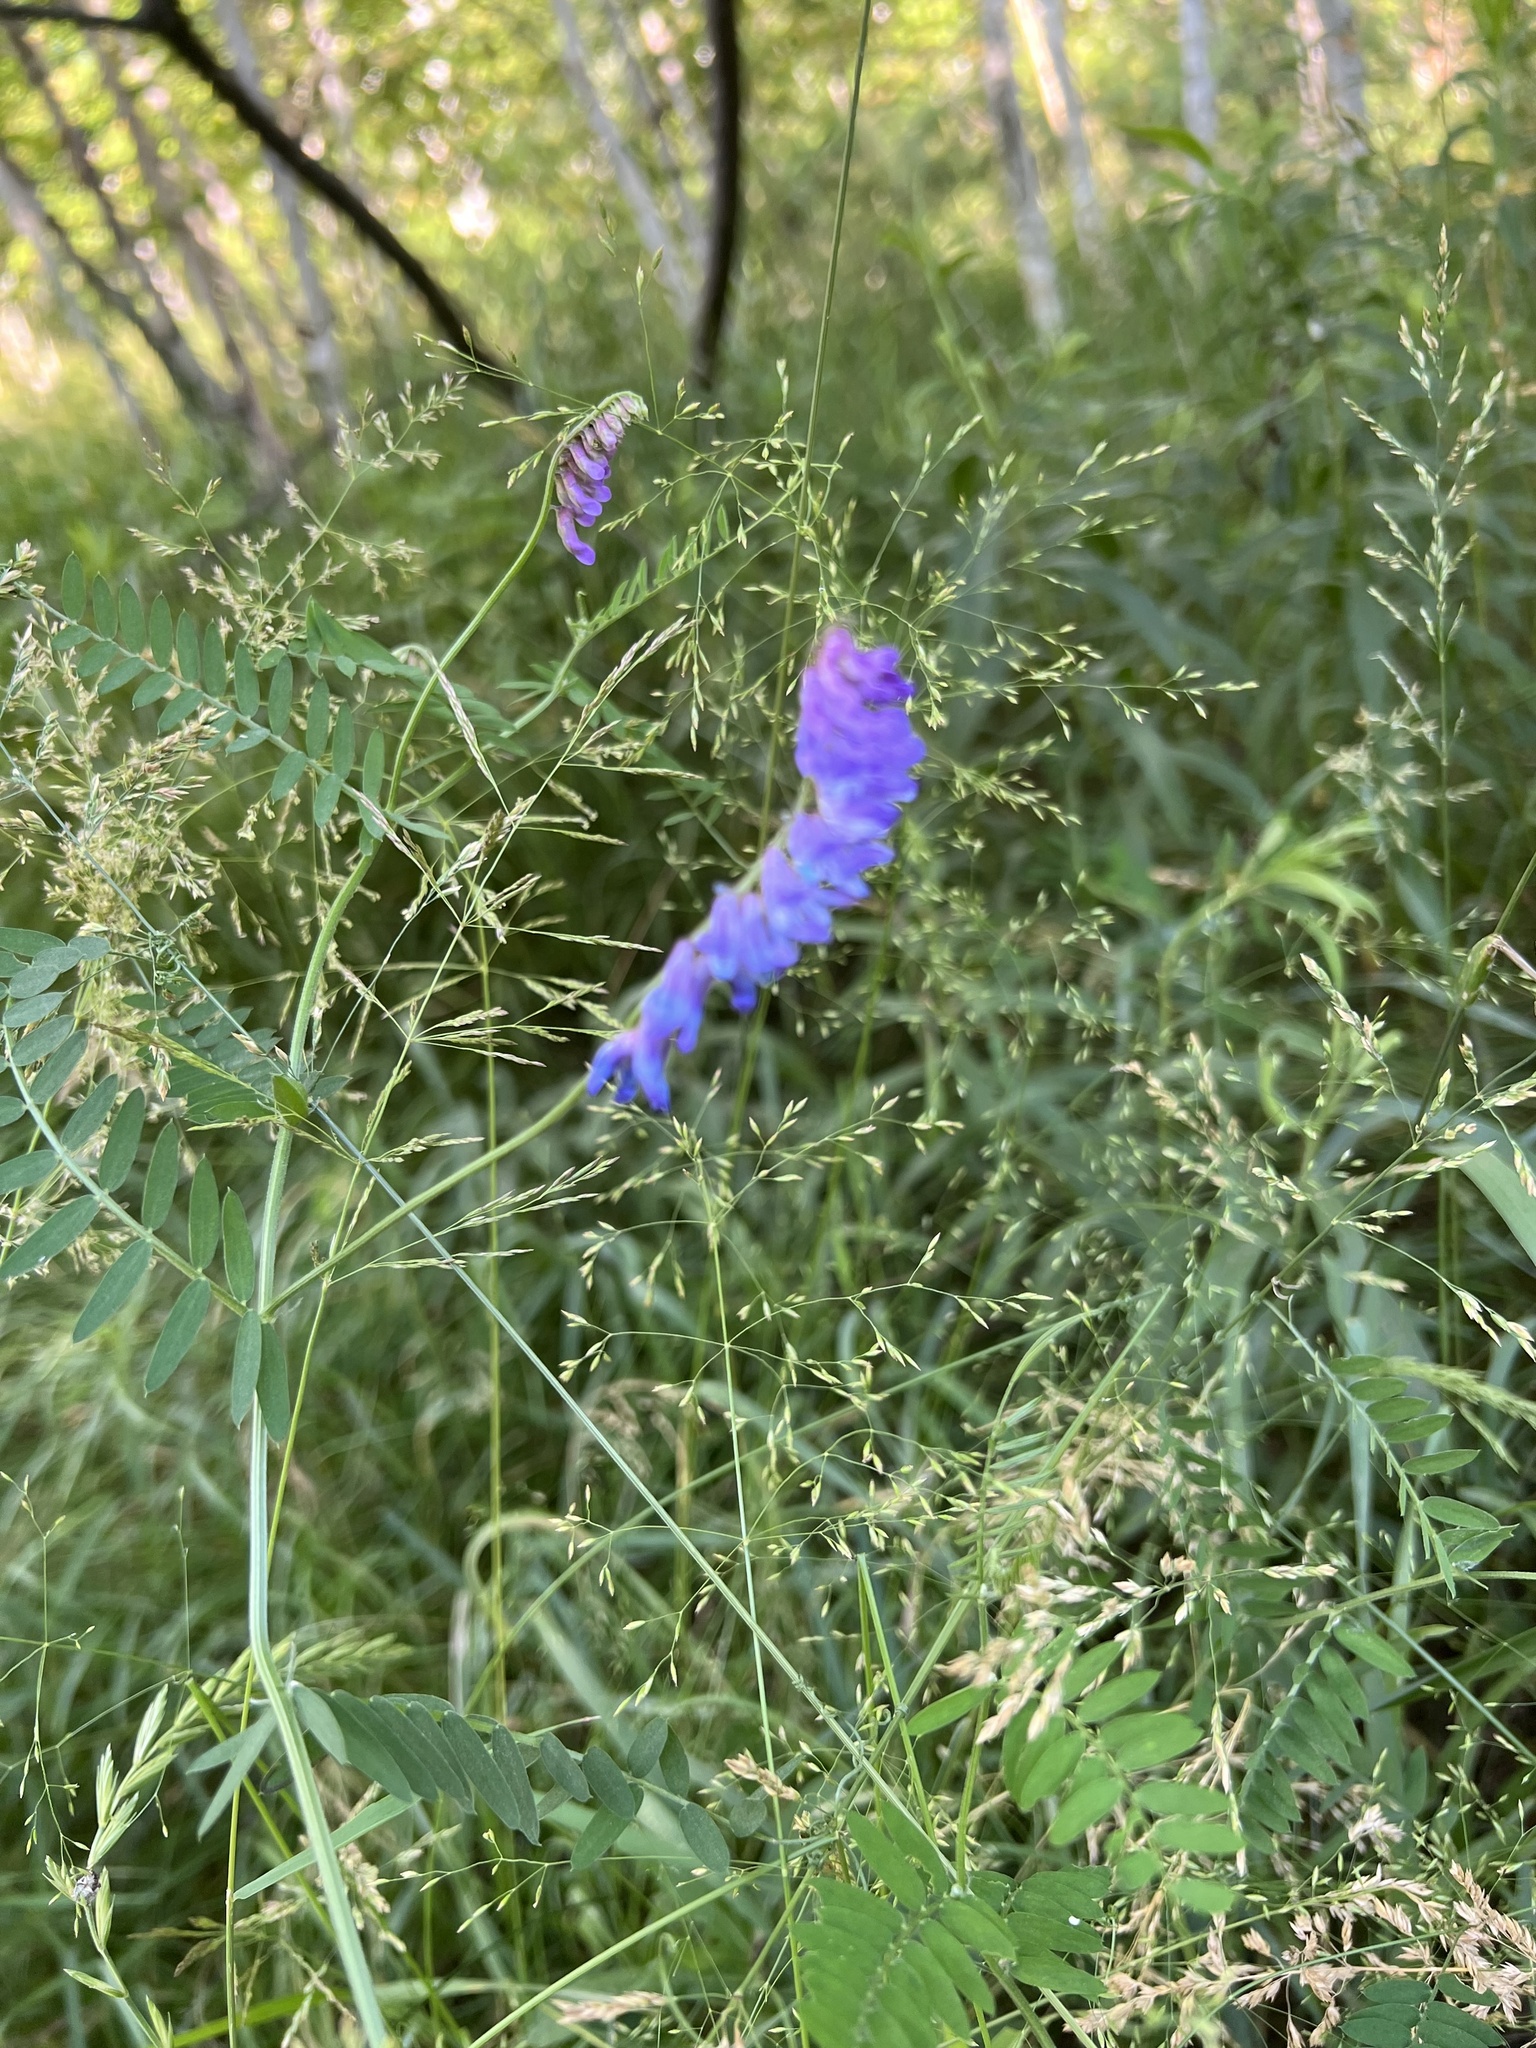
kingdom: Plantae
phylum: Tracheophyta
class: Magnoliopsida
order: Fabales
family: Fabaceae
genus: Vicia
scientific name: Vicia cracca
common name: Bird vetch
